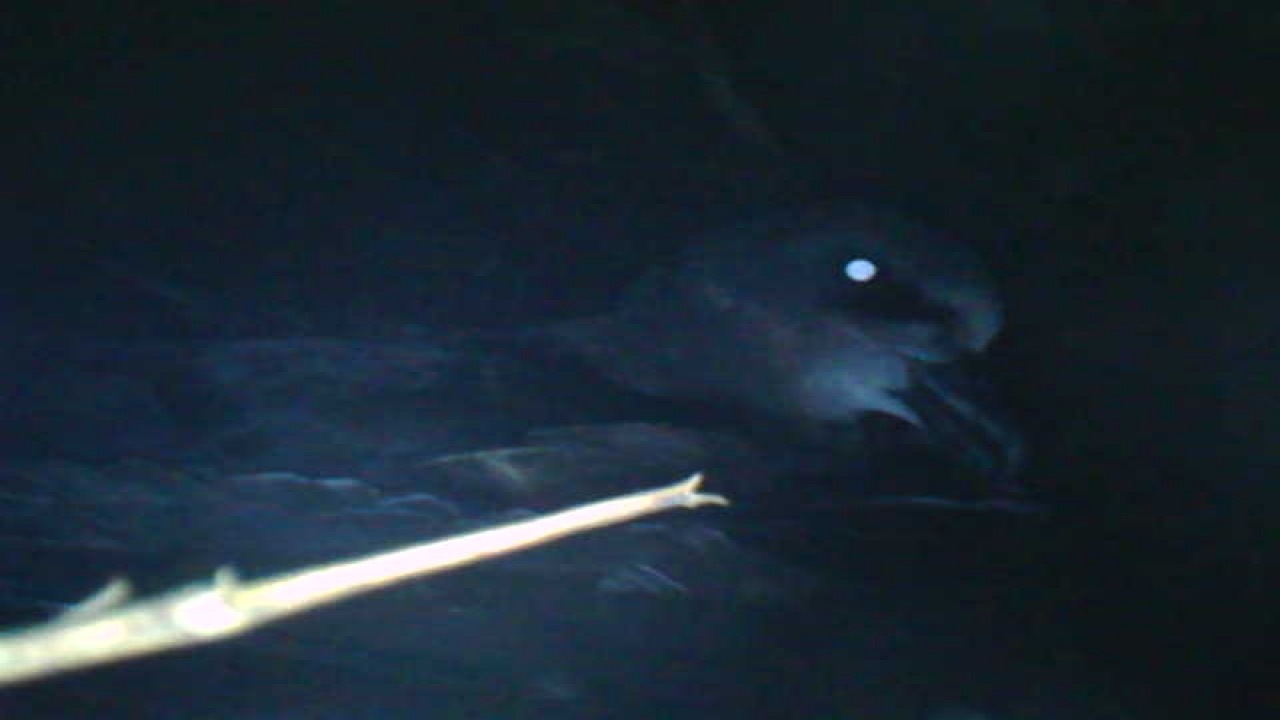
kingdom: Animalia
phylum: Chordata
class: Aves
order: Procellariiformes
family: Procellariidae
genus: Pterodroma
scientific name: Pterodroma macroptera
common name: Great-winged petrel
